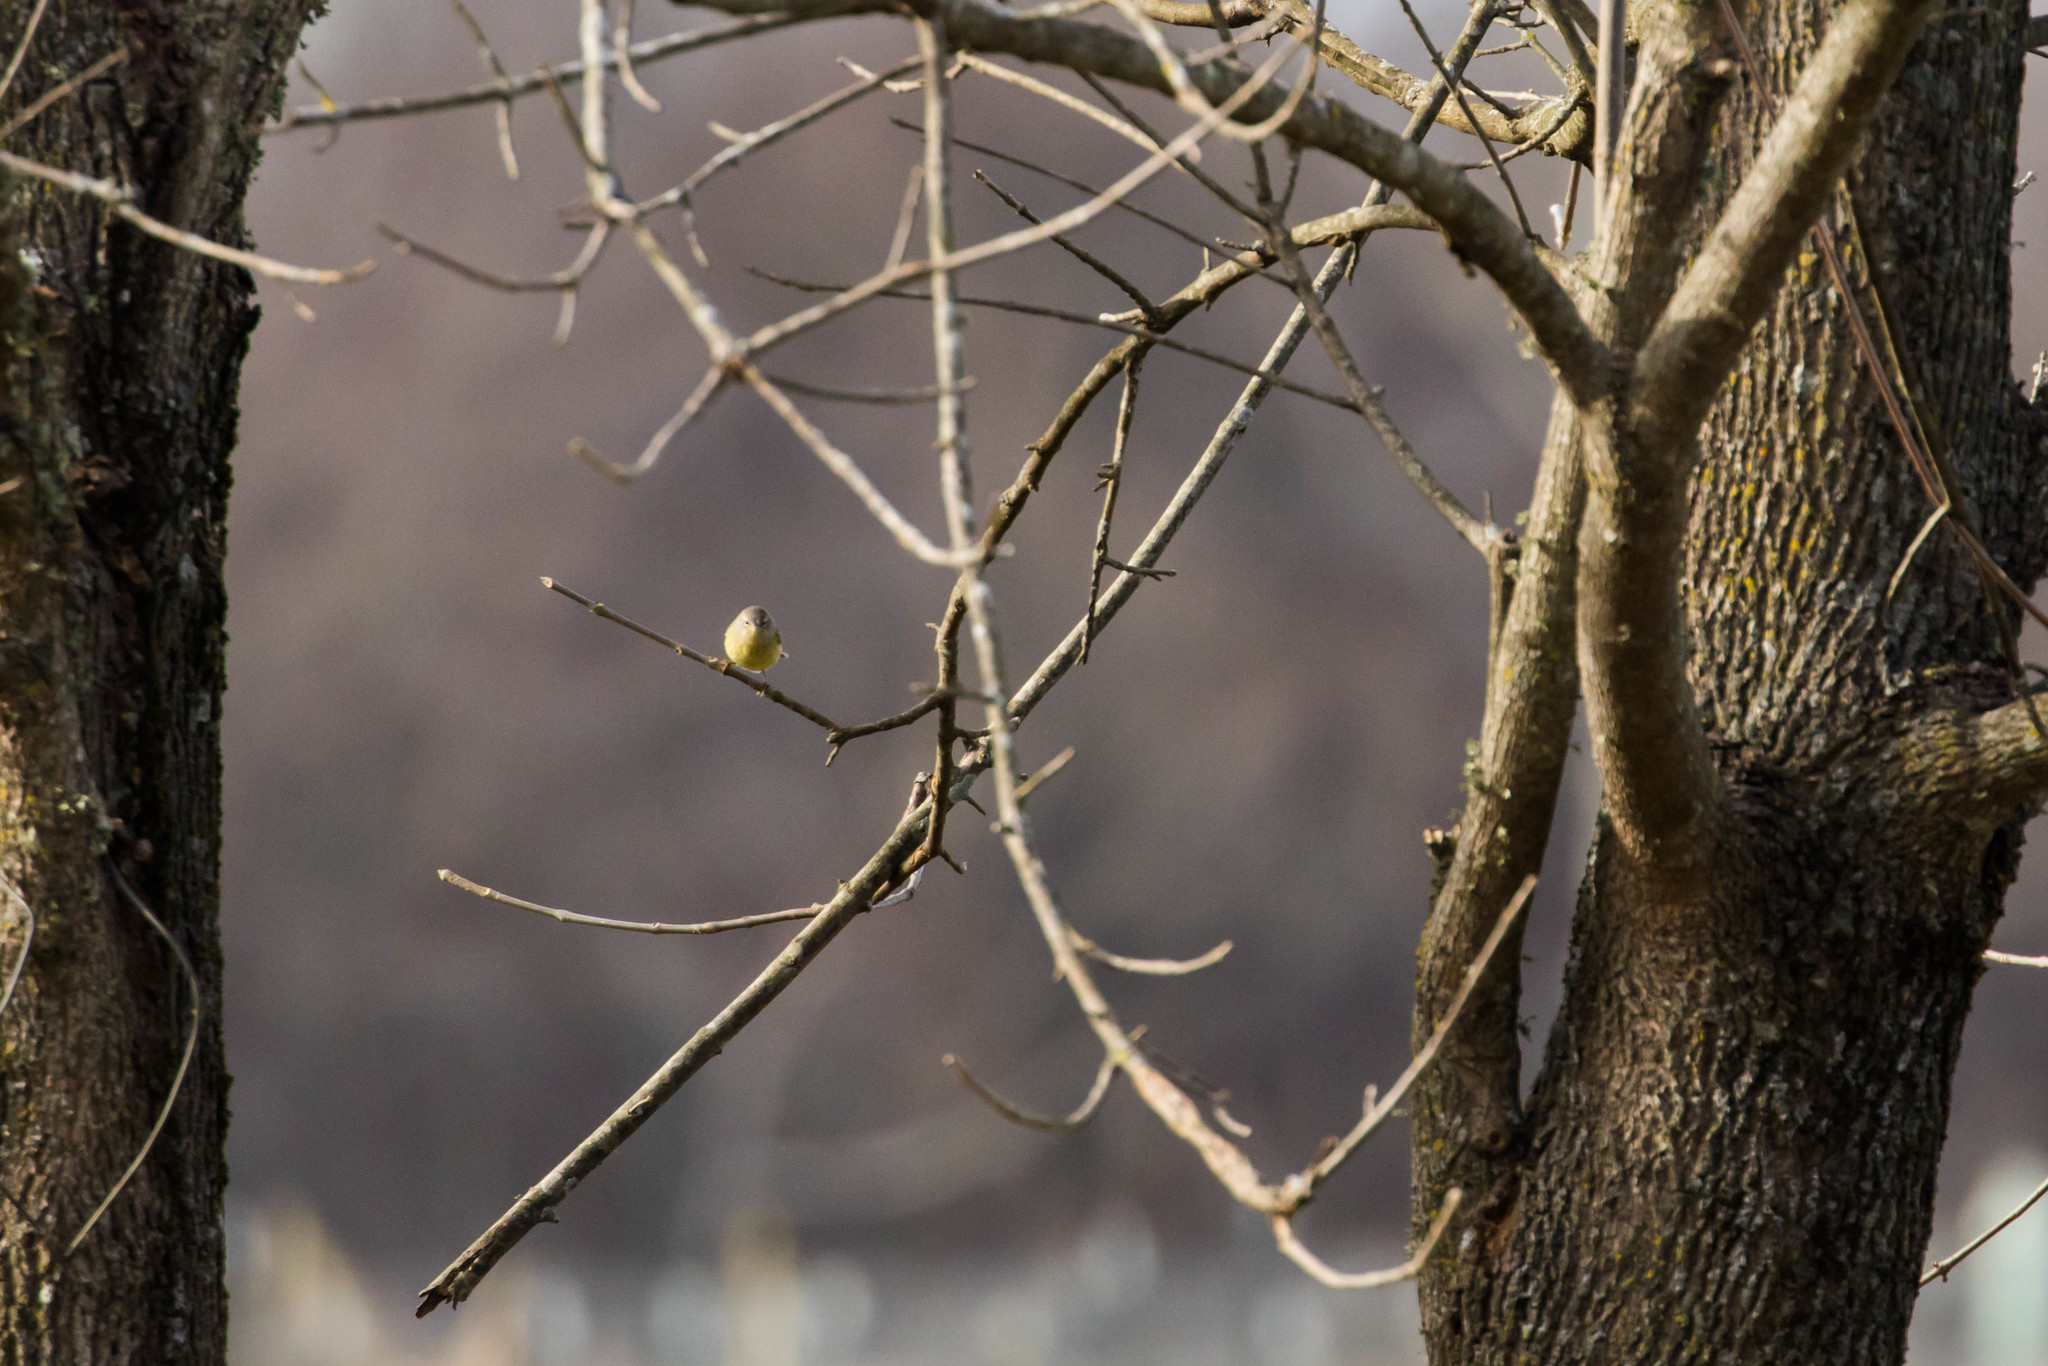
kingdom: Animalia
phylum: Chordata
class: Aves
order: Passeriformes
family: Parulidae
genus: Leiothlypis
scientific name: Leiothlypis celata
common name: Orange-crowned warbler
